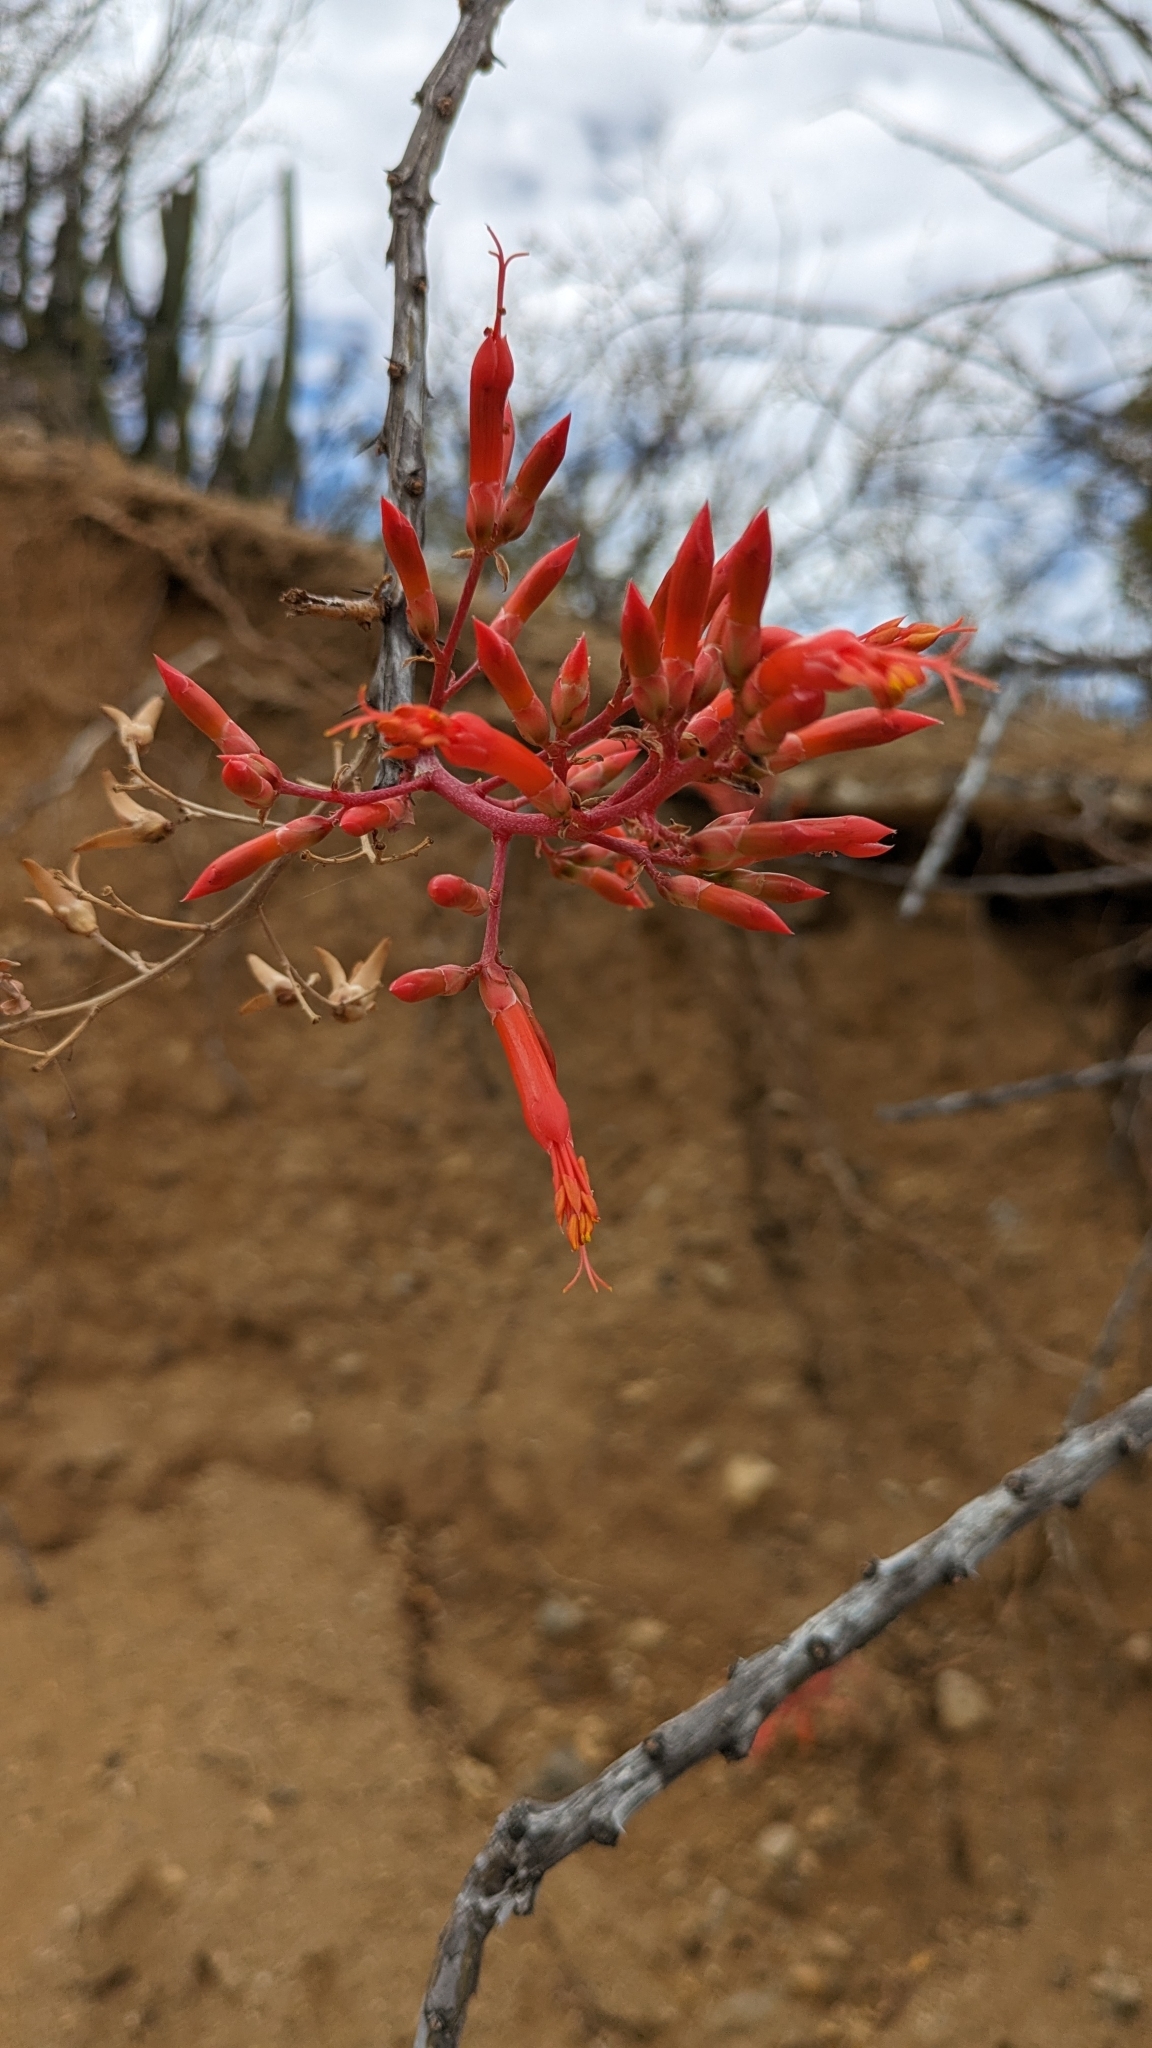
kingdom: Plantae
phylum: Tracheophyta
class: Magnoliopsida
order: Ericales
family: Fouquieriaceae
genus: Fouquieria
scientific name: Fouquieria diguetii
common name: Adam's tree
